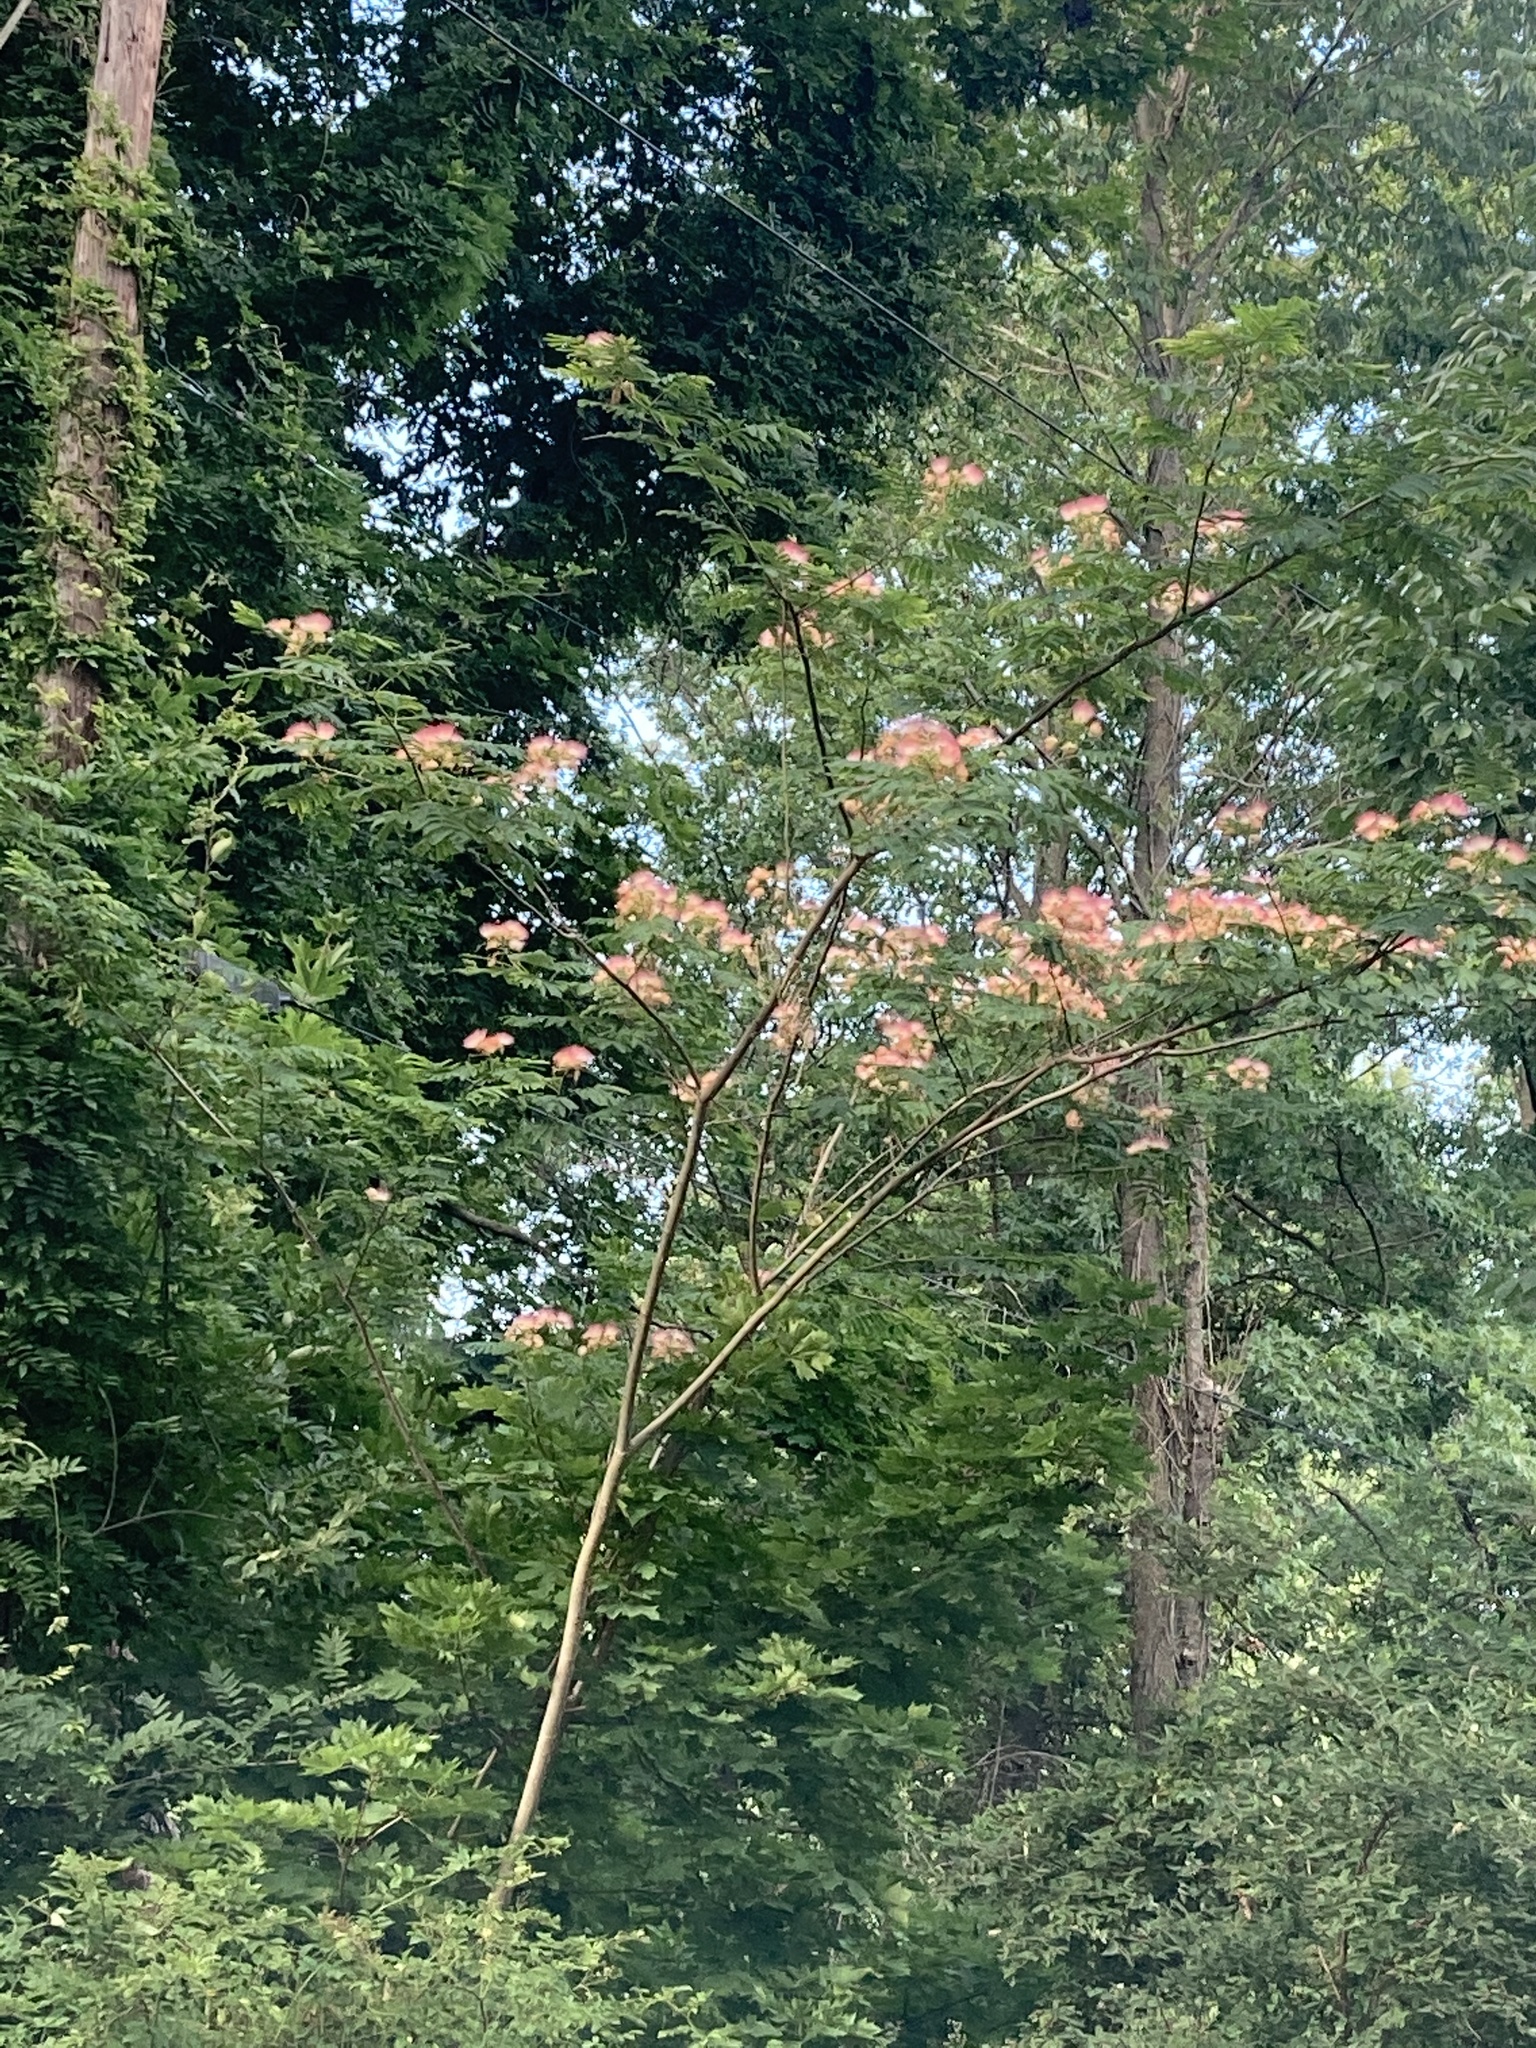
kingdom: Plantae
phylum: Tracheophyta
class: Magnoliopsida
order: Fabales
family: Fabaceae
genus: Albizia
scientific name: Albizia julibrissin
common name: Silktree
